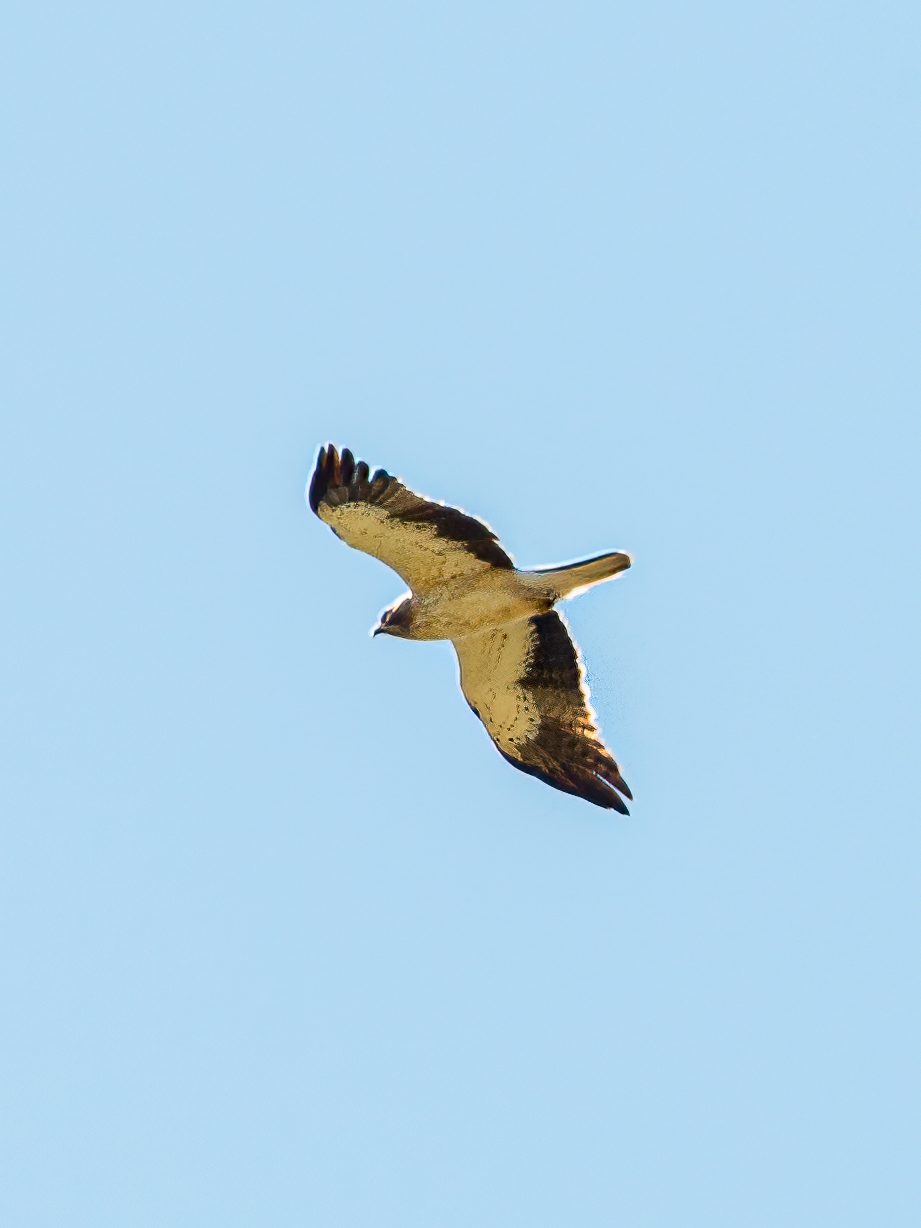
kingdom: Animalia
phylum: Chordata
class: Aves
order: Accipitriformes
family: Accipitridae
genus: Hieraaetus
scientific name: Hieraaetus pennatus
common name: Booted eagle
